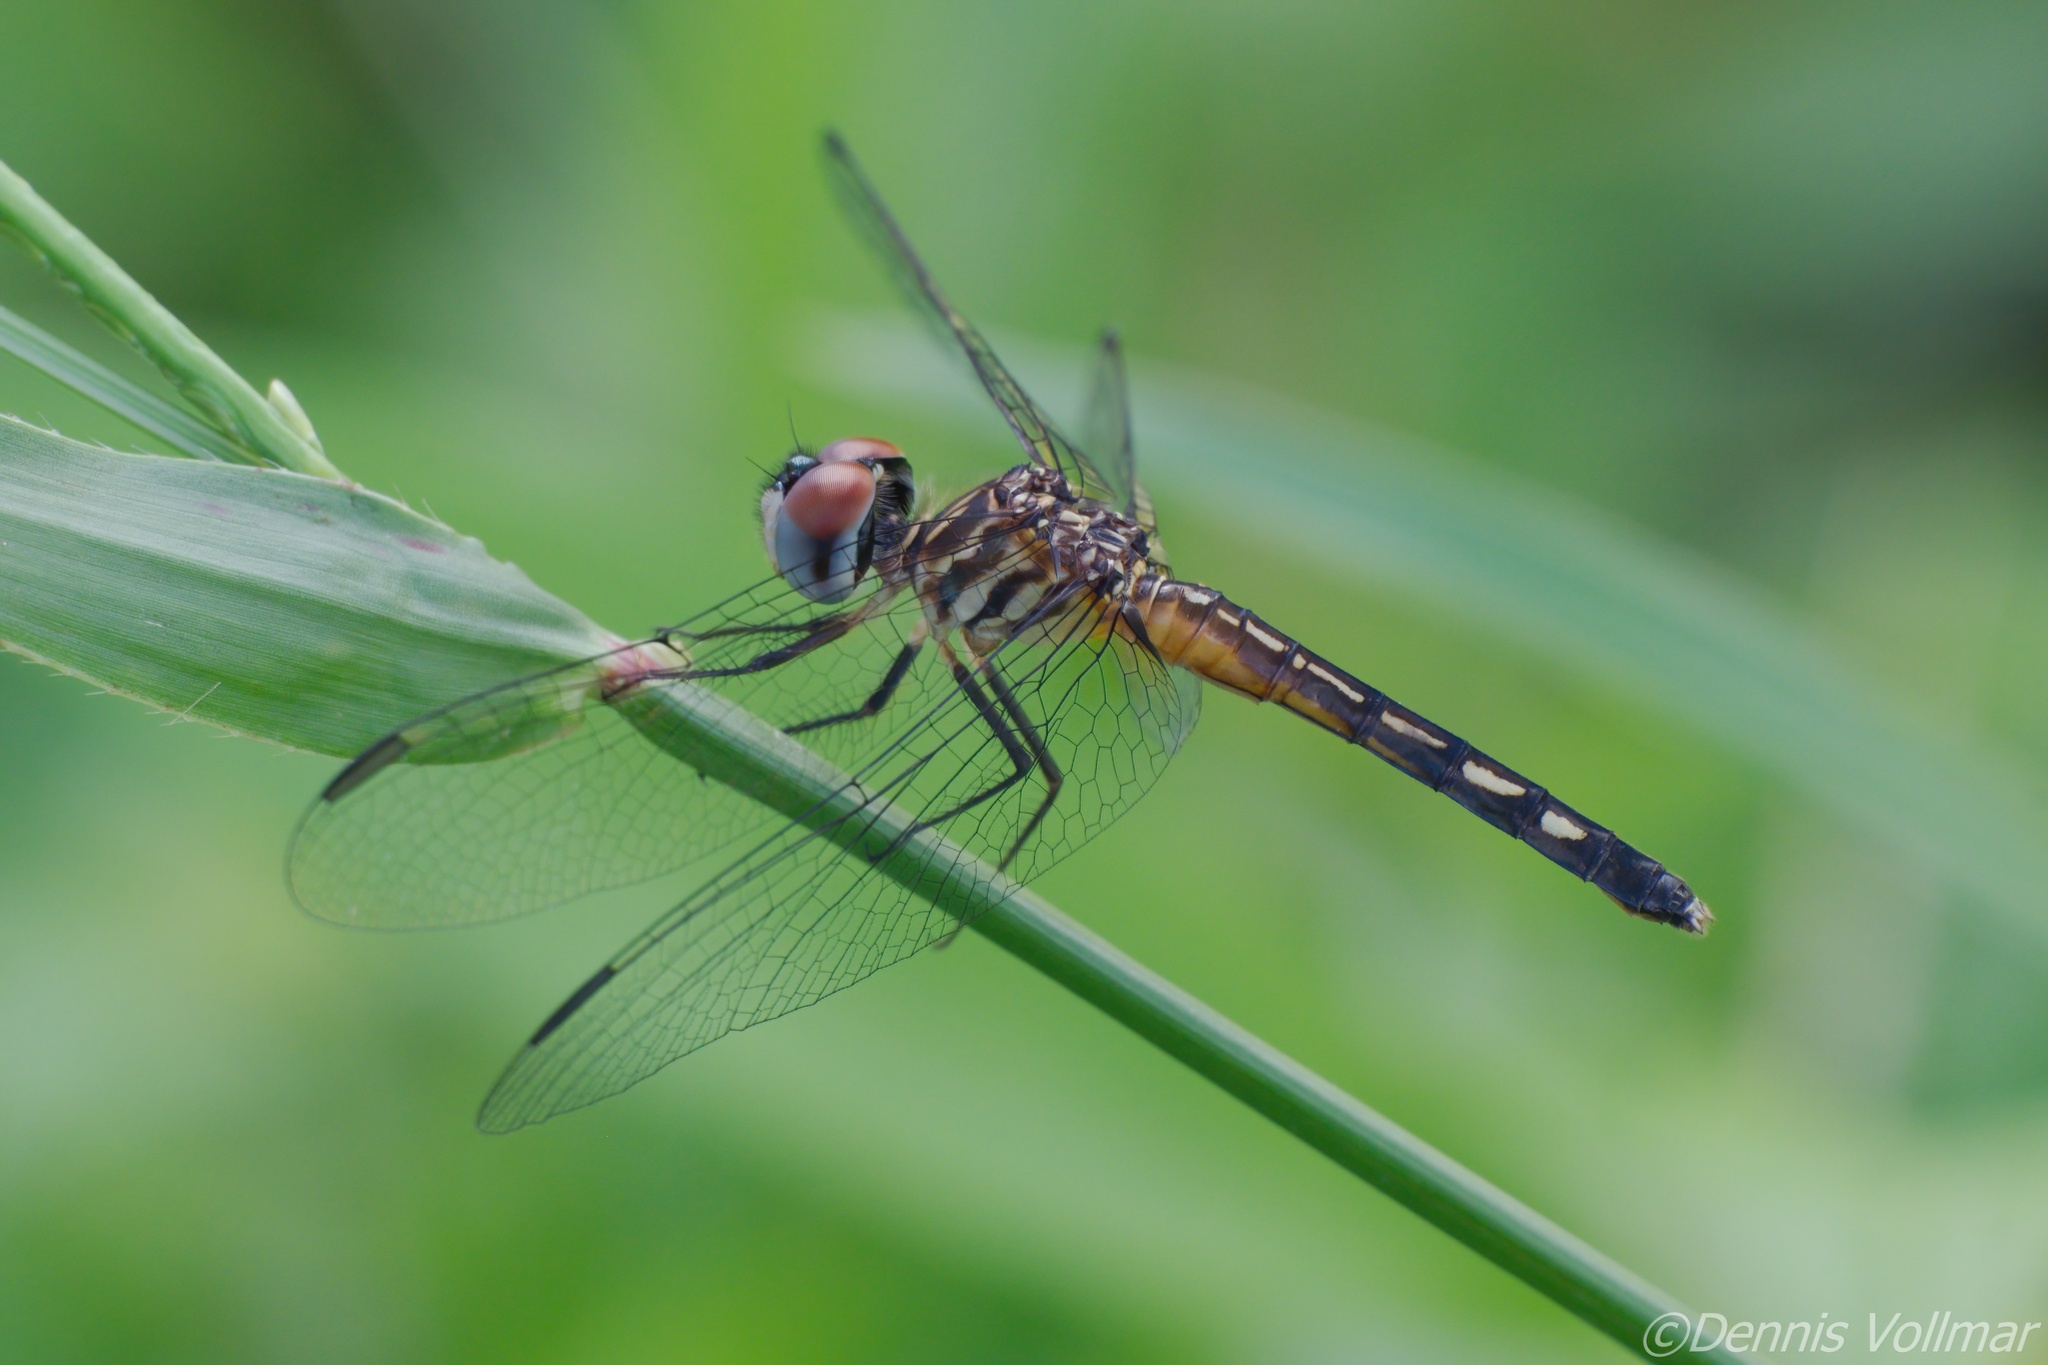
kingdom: Animalia
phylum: Arthropoda
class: Insecta
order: Odonata
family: Libellulidae
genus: Pachydiplax
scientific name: Pachydiplax longipennis
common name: Blue dasher
